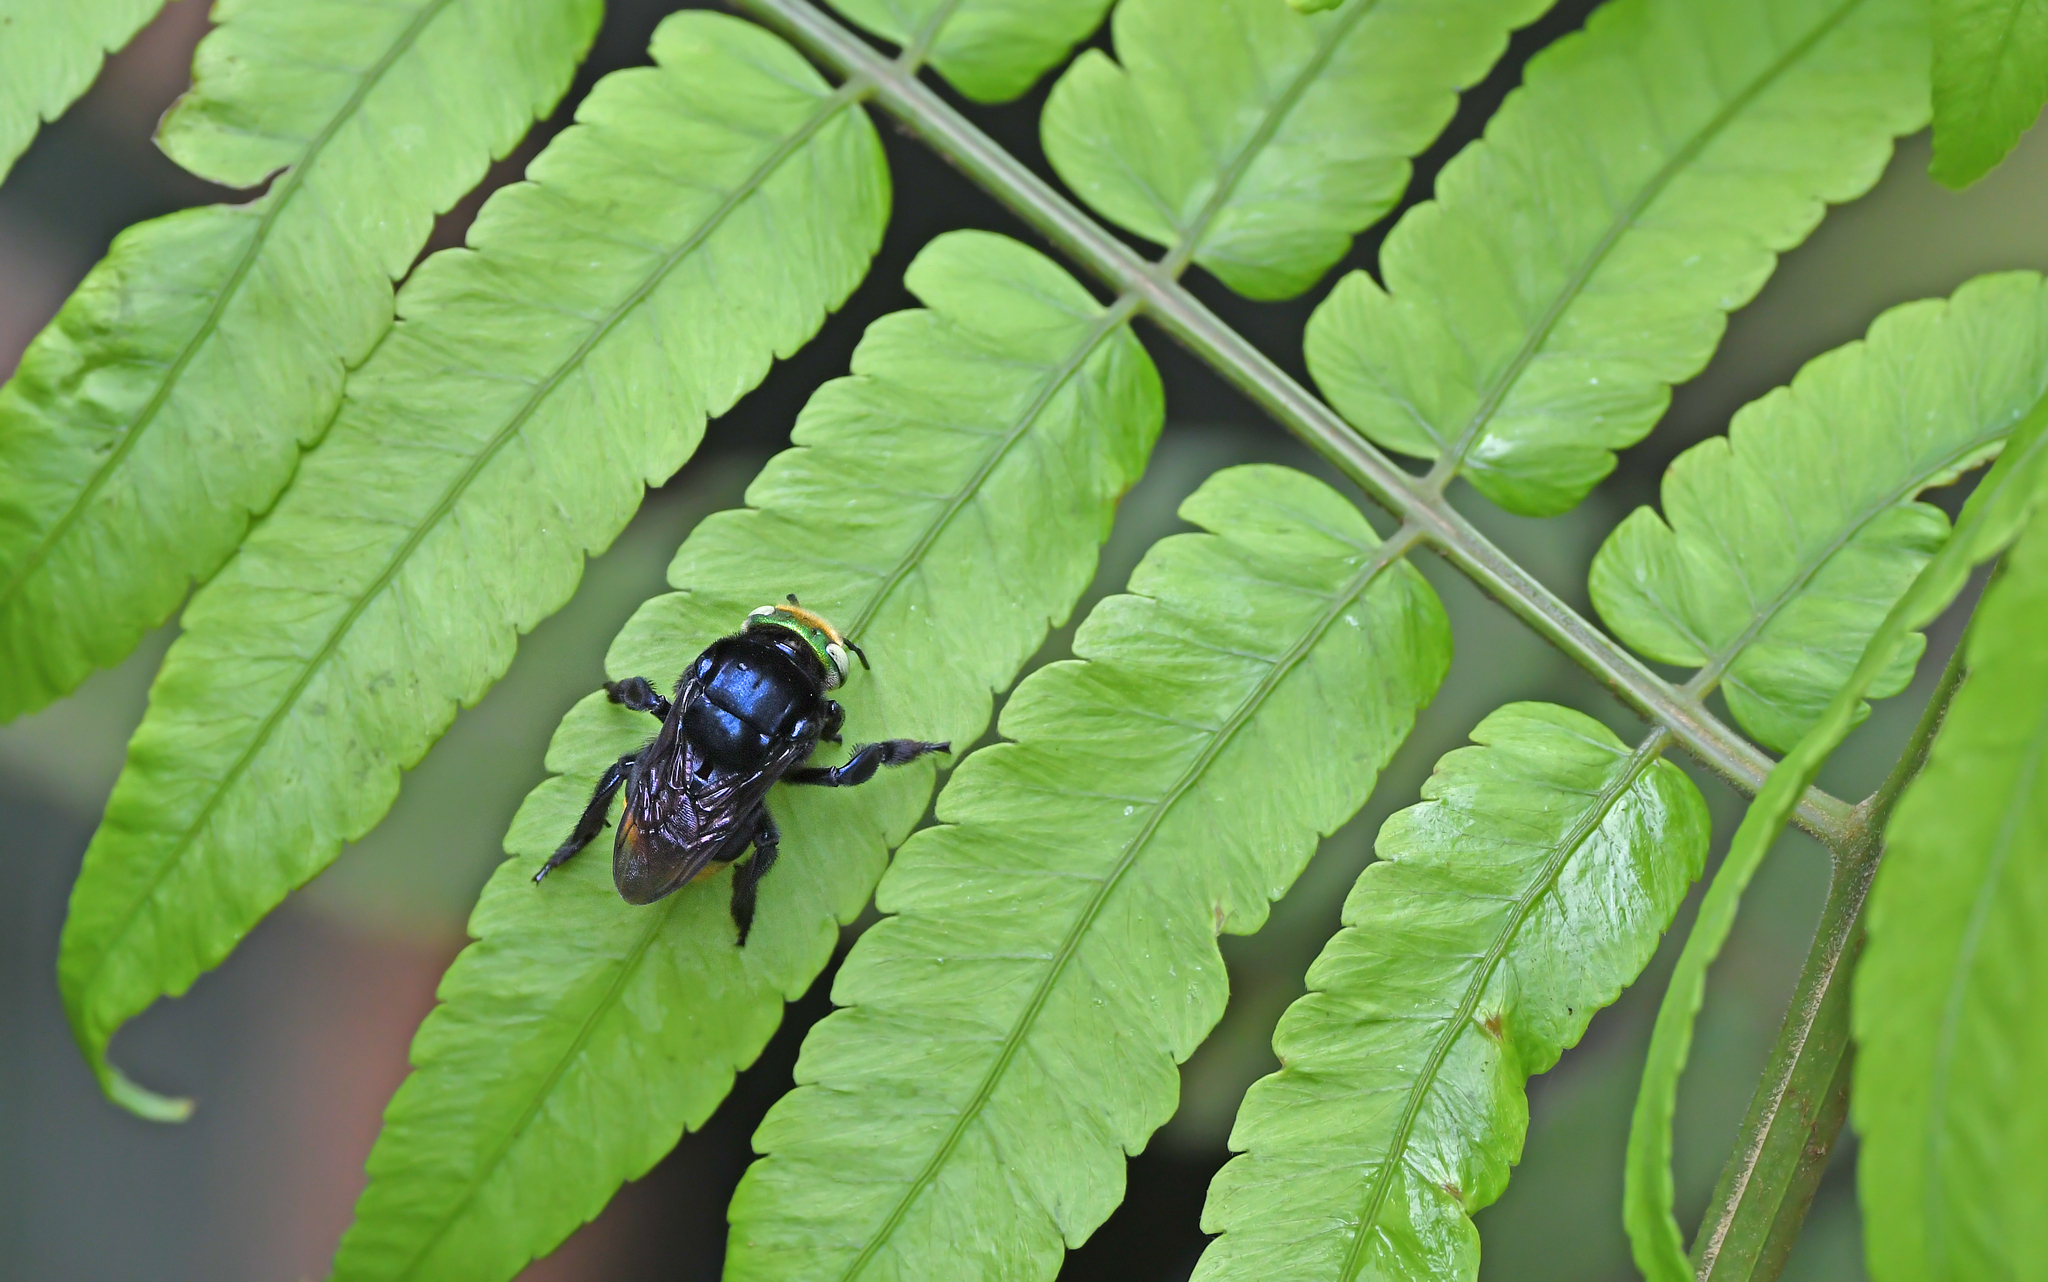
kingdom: Animalia
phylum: Arthropoda
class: Insecta
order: Hymenoptera
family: Apidae
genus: Eufriesea
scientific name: Eufriesea pulchra
